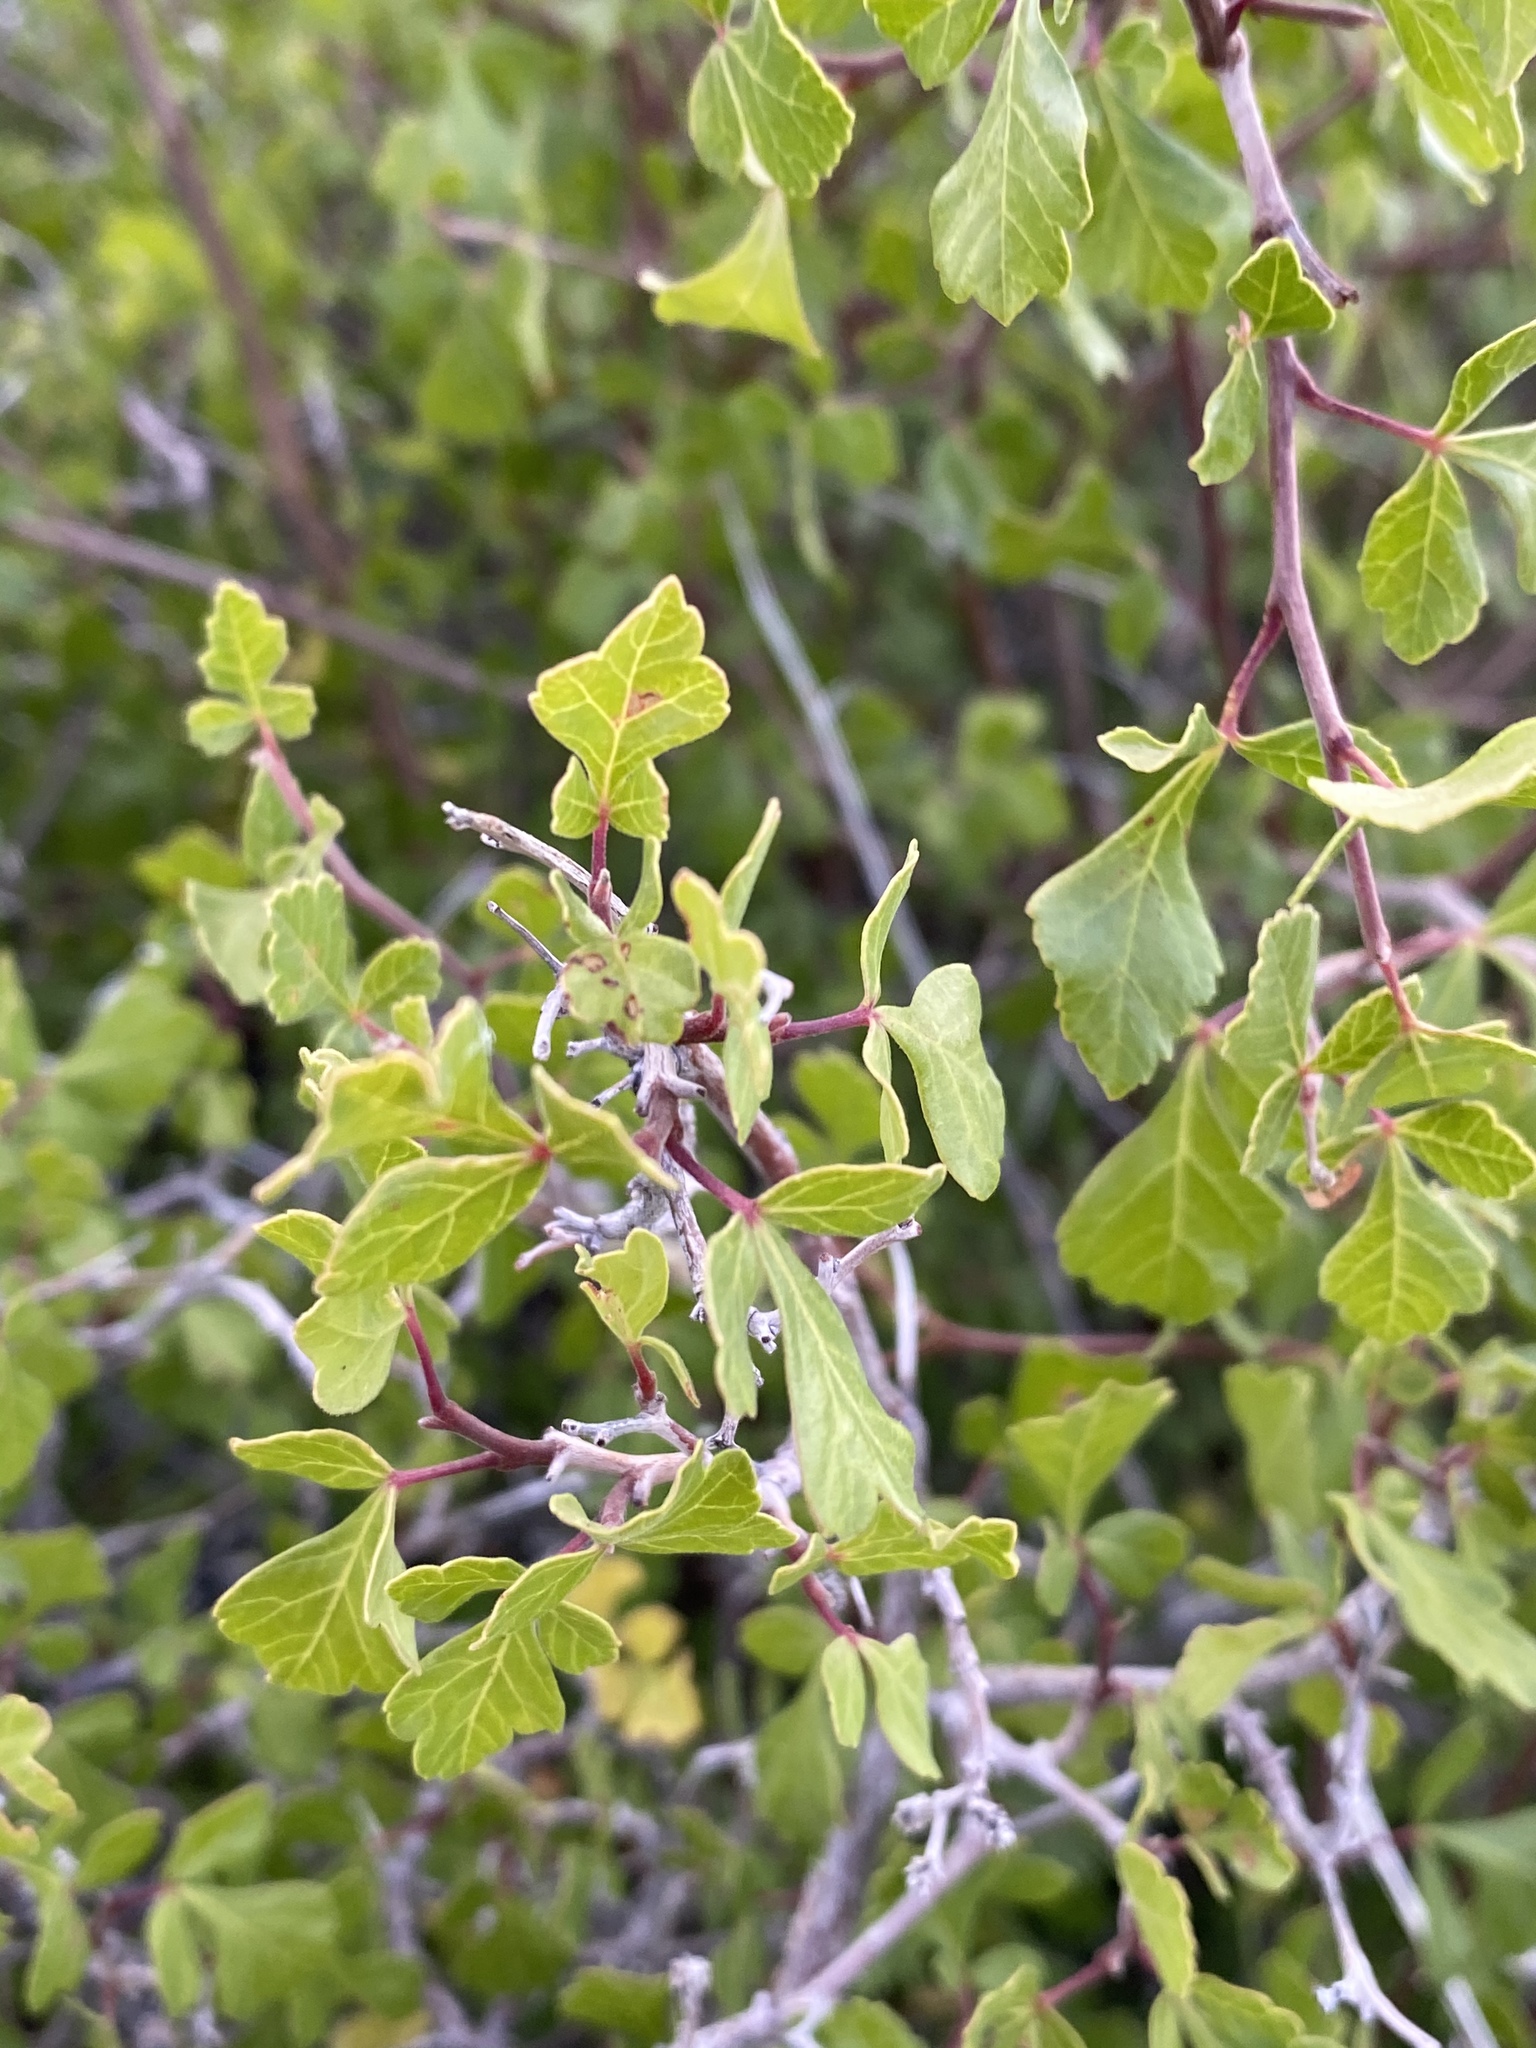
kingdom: Plantae
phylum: Tracheophyta
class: Magnoliopsida
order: Sapindales
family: Anacardiaceae
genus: Rhus
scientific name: Rhus trilobata
